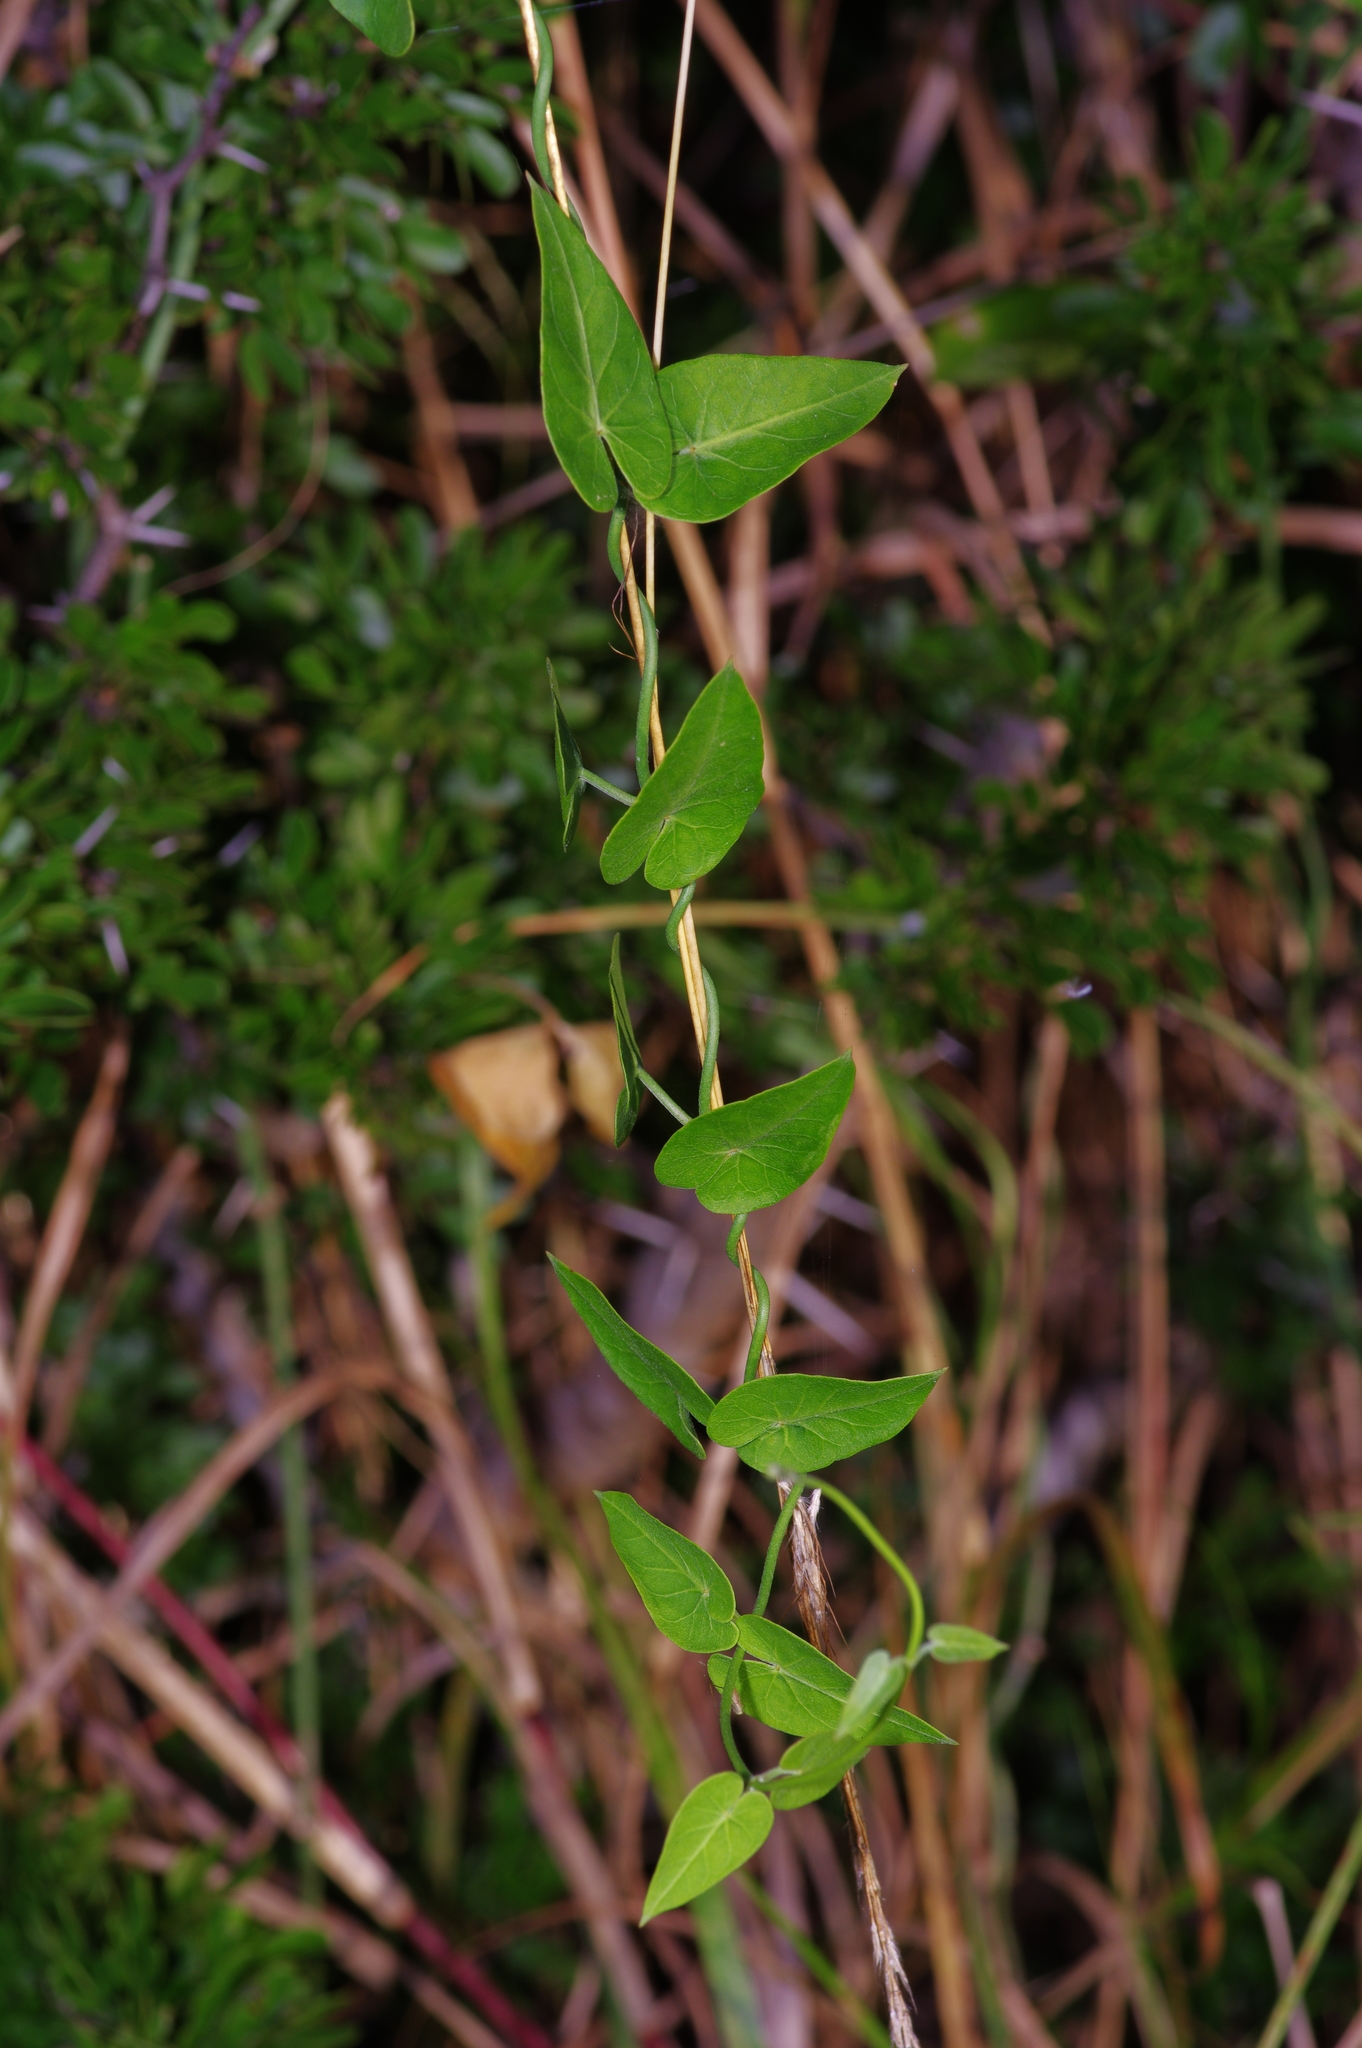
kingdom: Plantae
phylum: Tracheophyta
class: Magnoliopsida
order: Gentianales
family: Apocynaceae
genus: Funastrum
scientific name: Funastrum cynanchoides
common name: Climbing-milkweed
